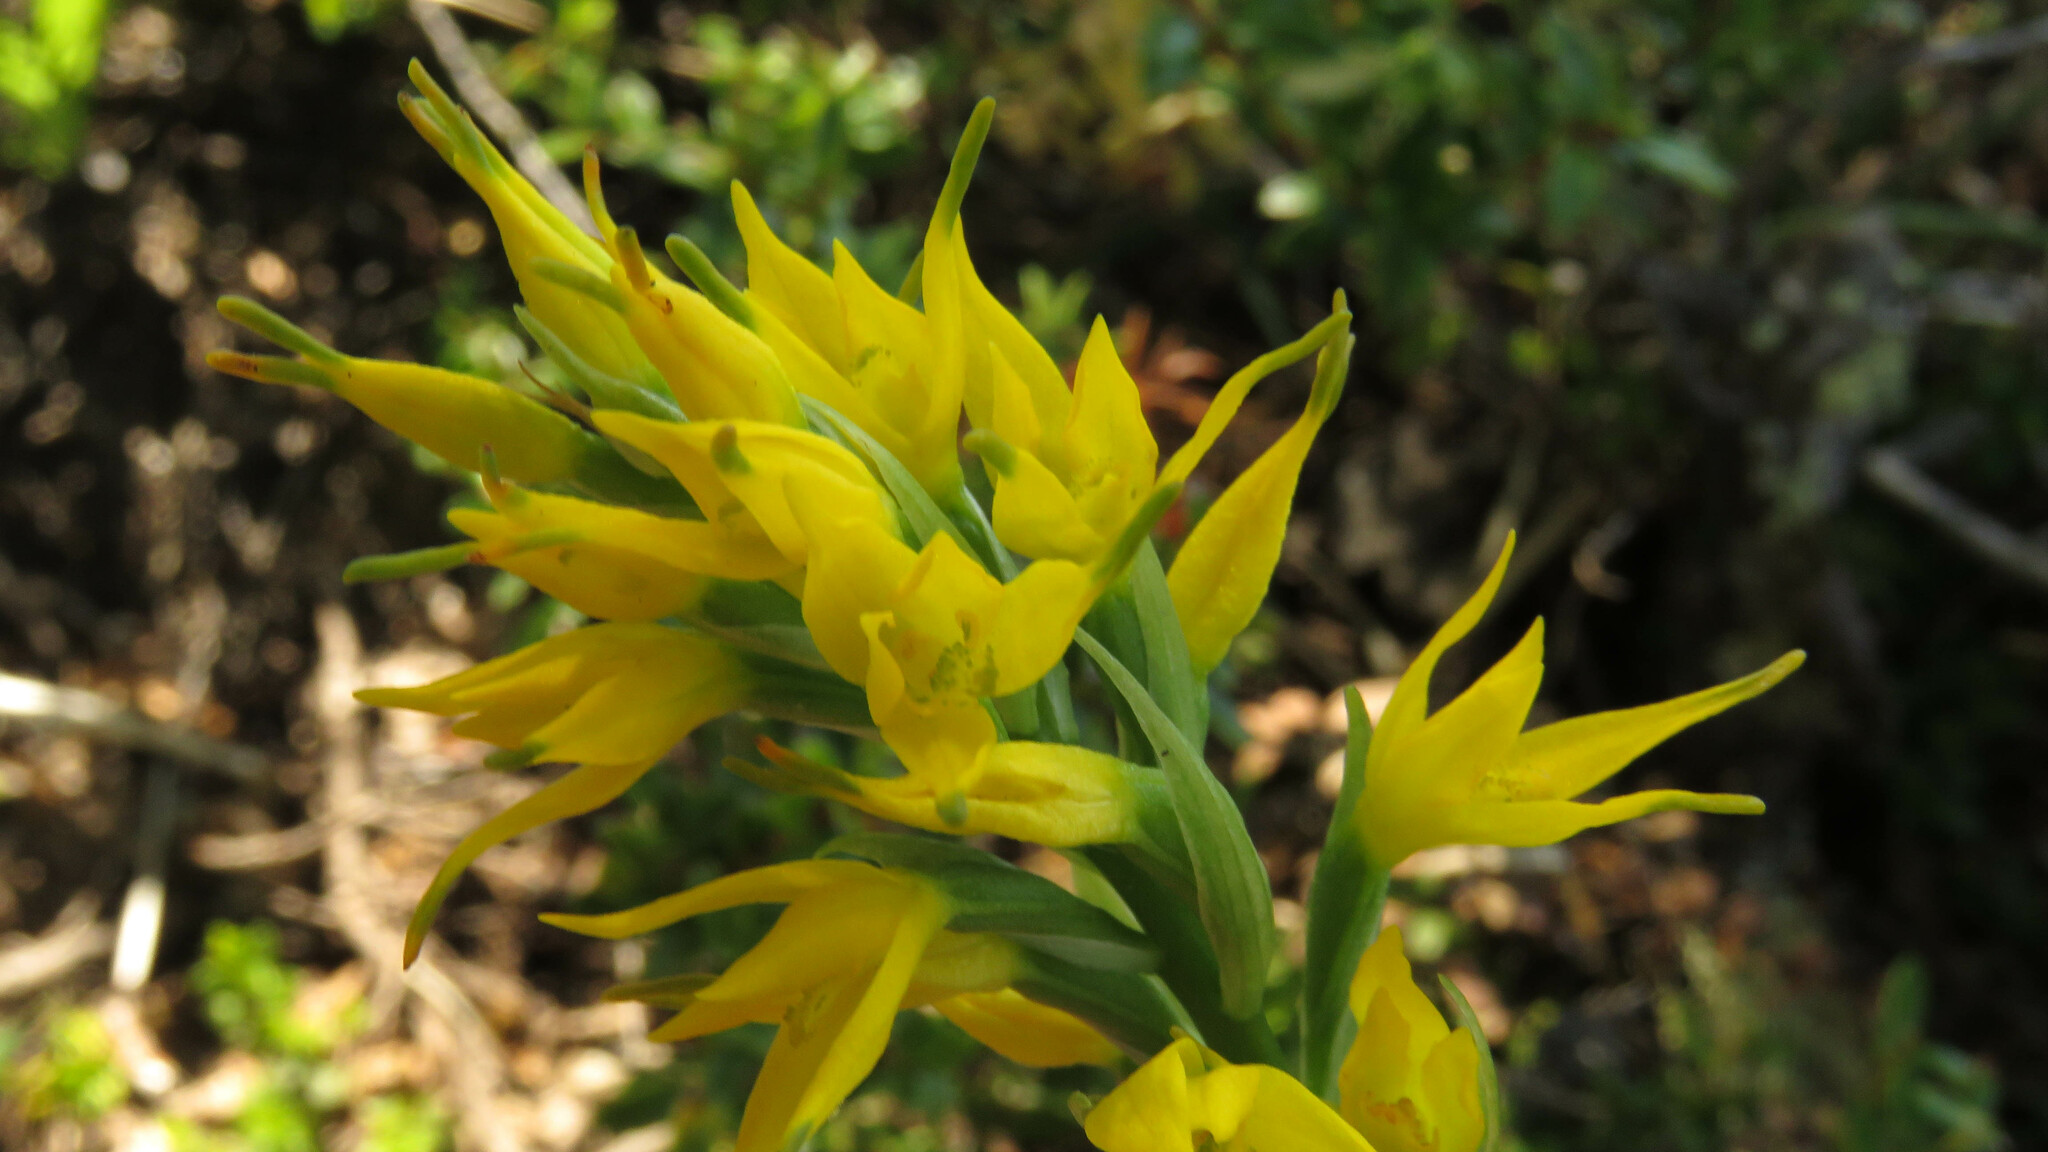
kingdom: Plantae
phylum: Tracheophyta
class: Liliopsida
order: Asparagales
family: Orchidaceae
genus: Gavilea
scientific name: Gavilea lutea
